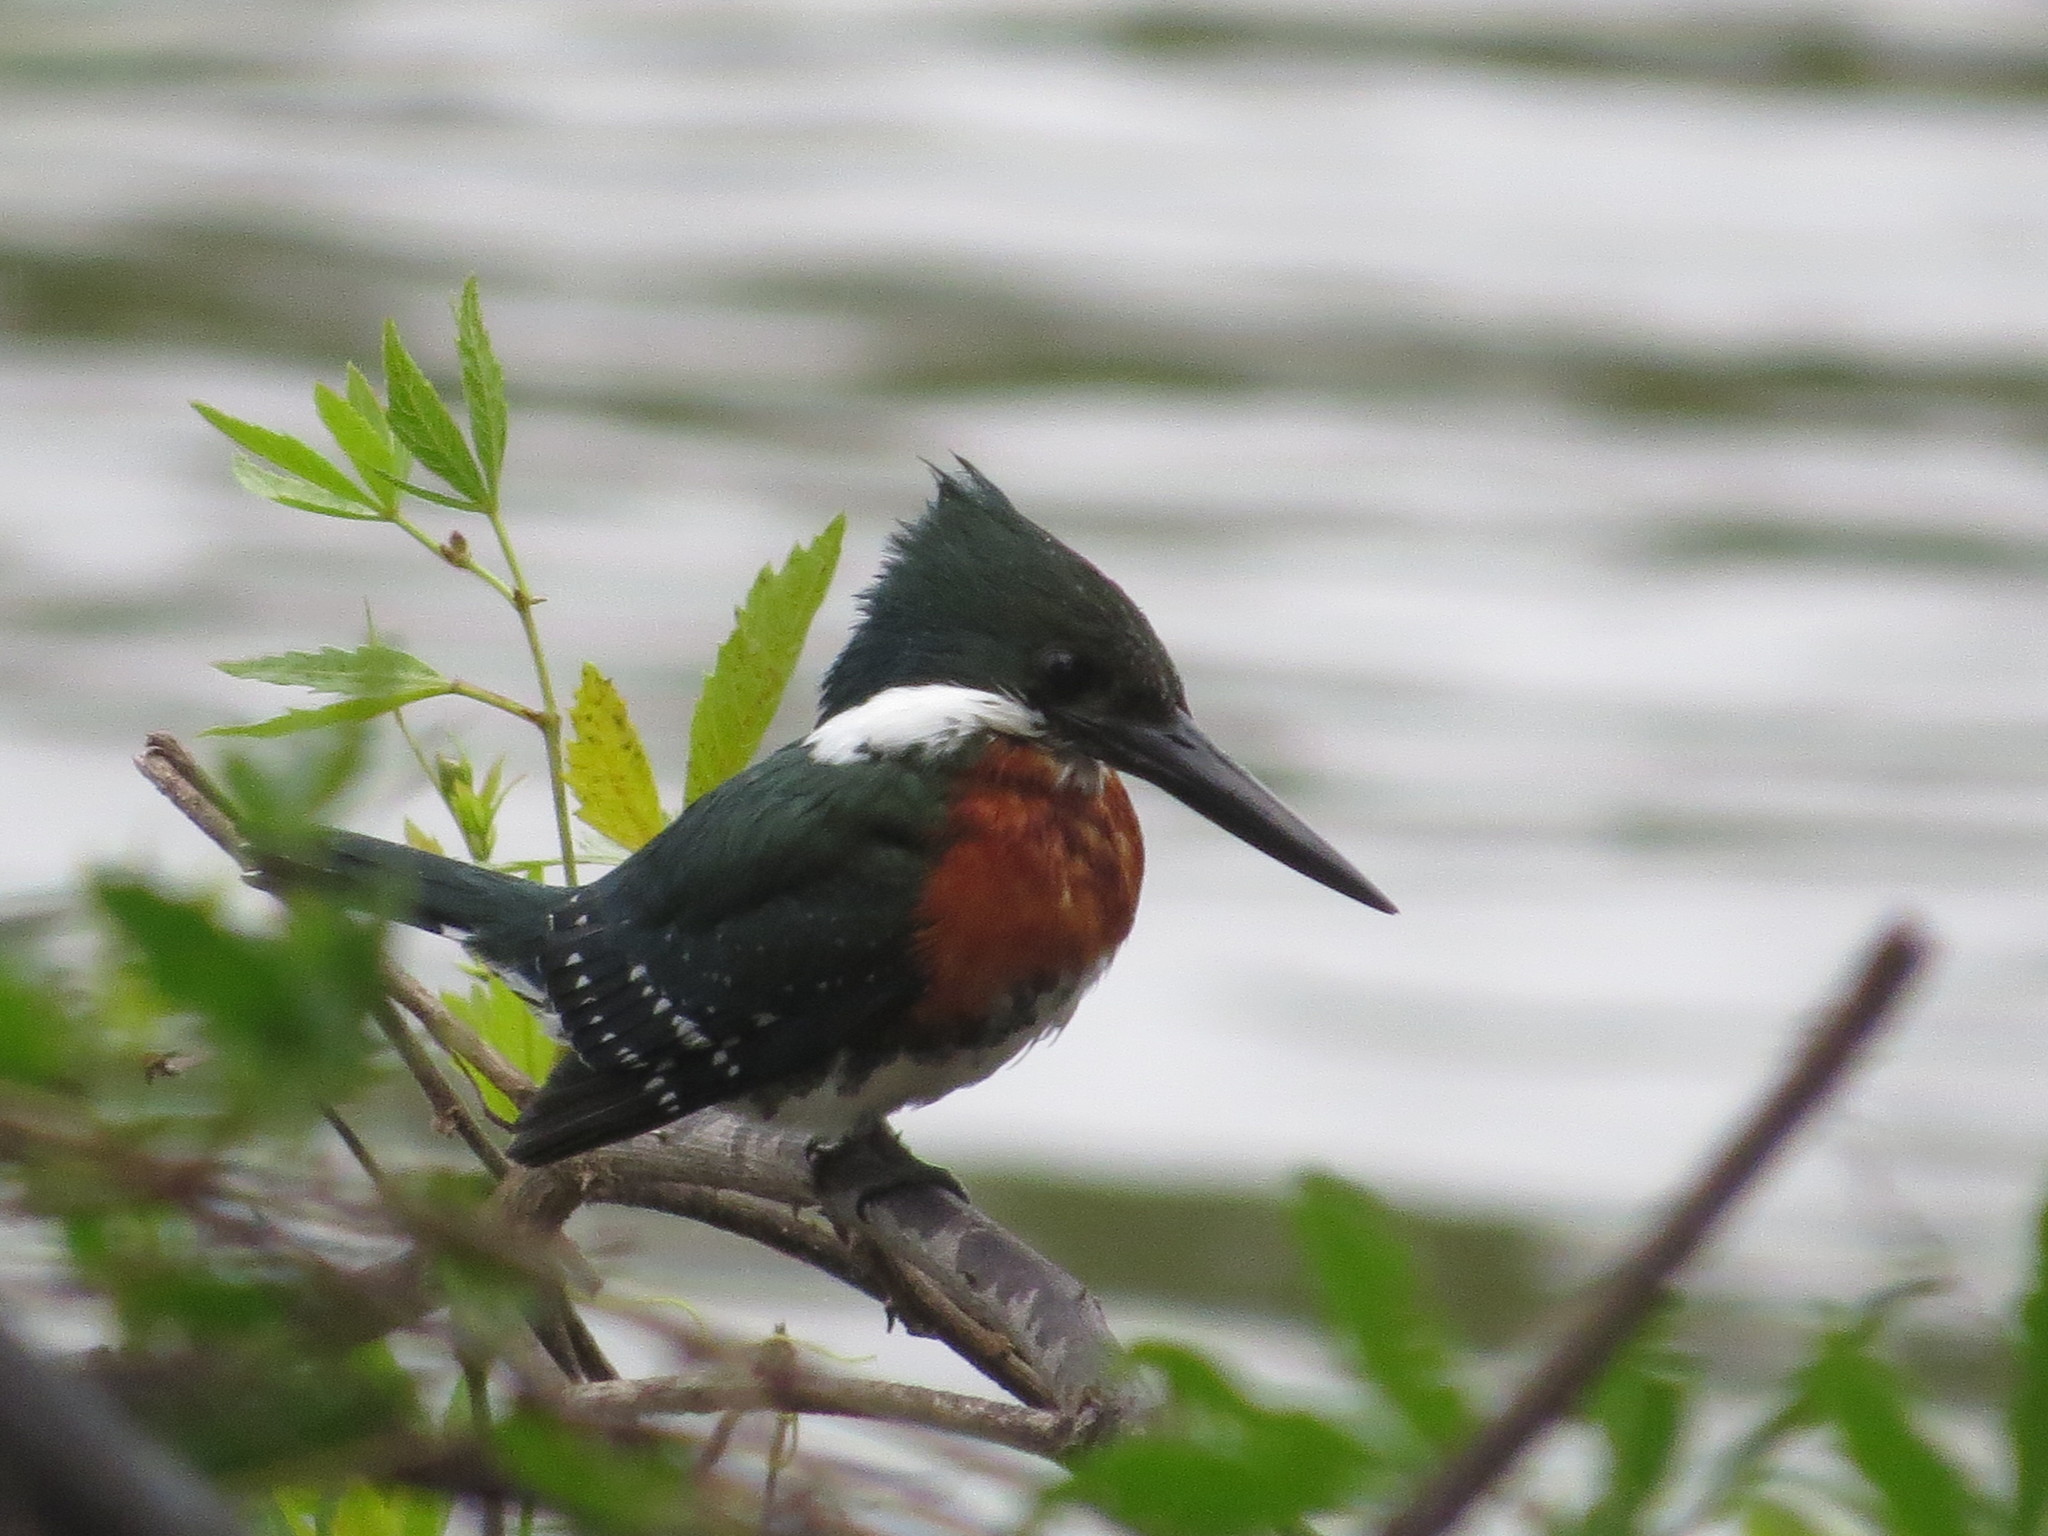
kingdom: Animalia
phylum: Chordata
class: Aves
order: Coraciiformes
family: Alcedinidae
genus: Chloroceryle
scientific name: Chloroceryle americana
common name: Green kingfisher
